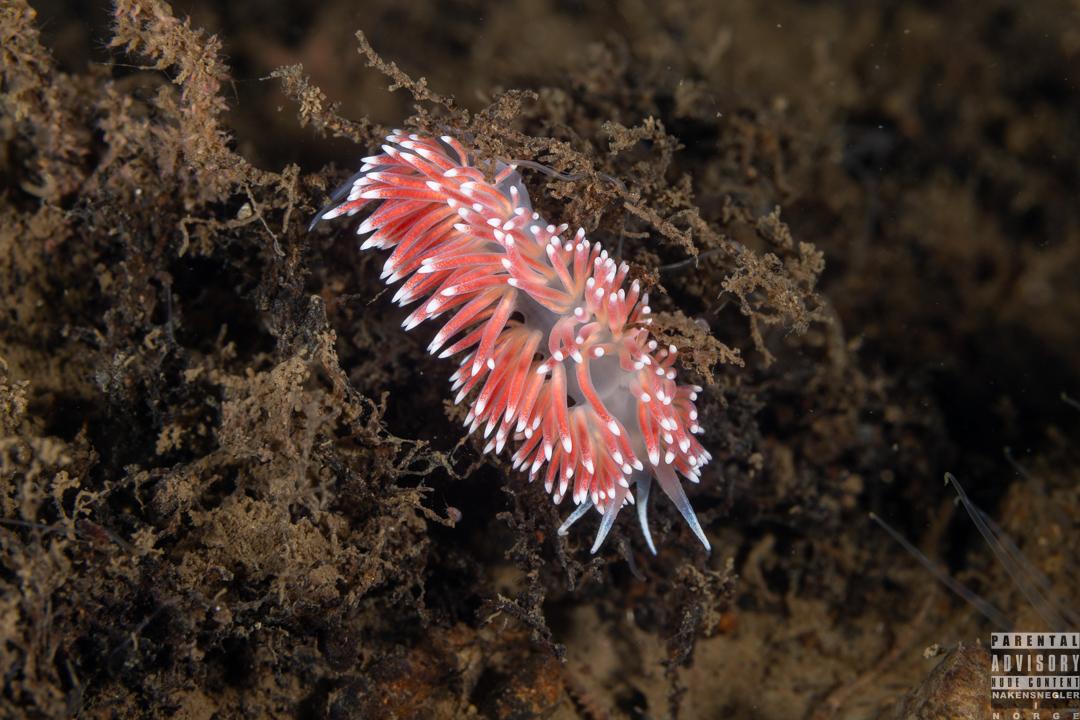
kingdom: Animalia
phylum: Mollusca
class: Gastropoda
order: Nudibranchia
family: Flabellinidae
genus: Carronella
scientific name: Carronella pellucida
